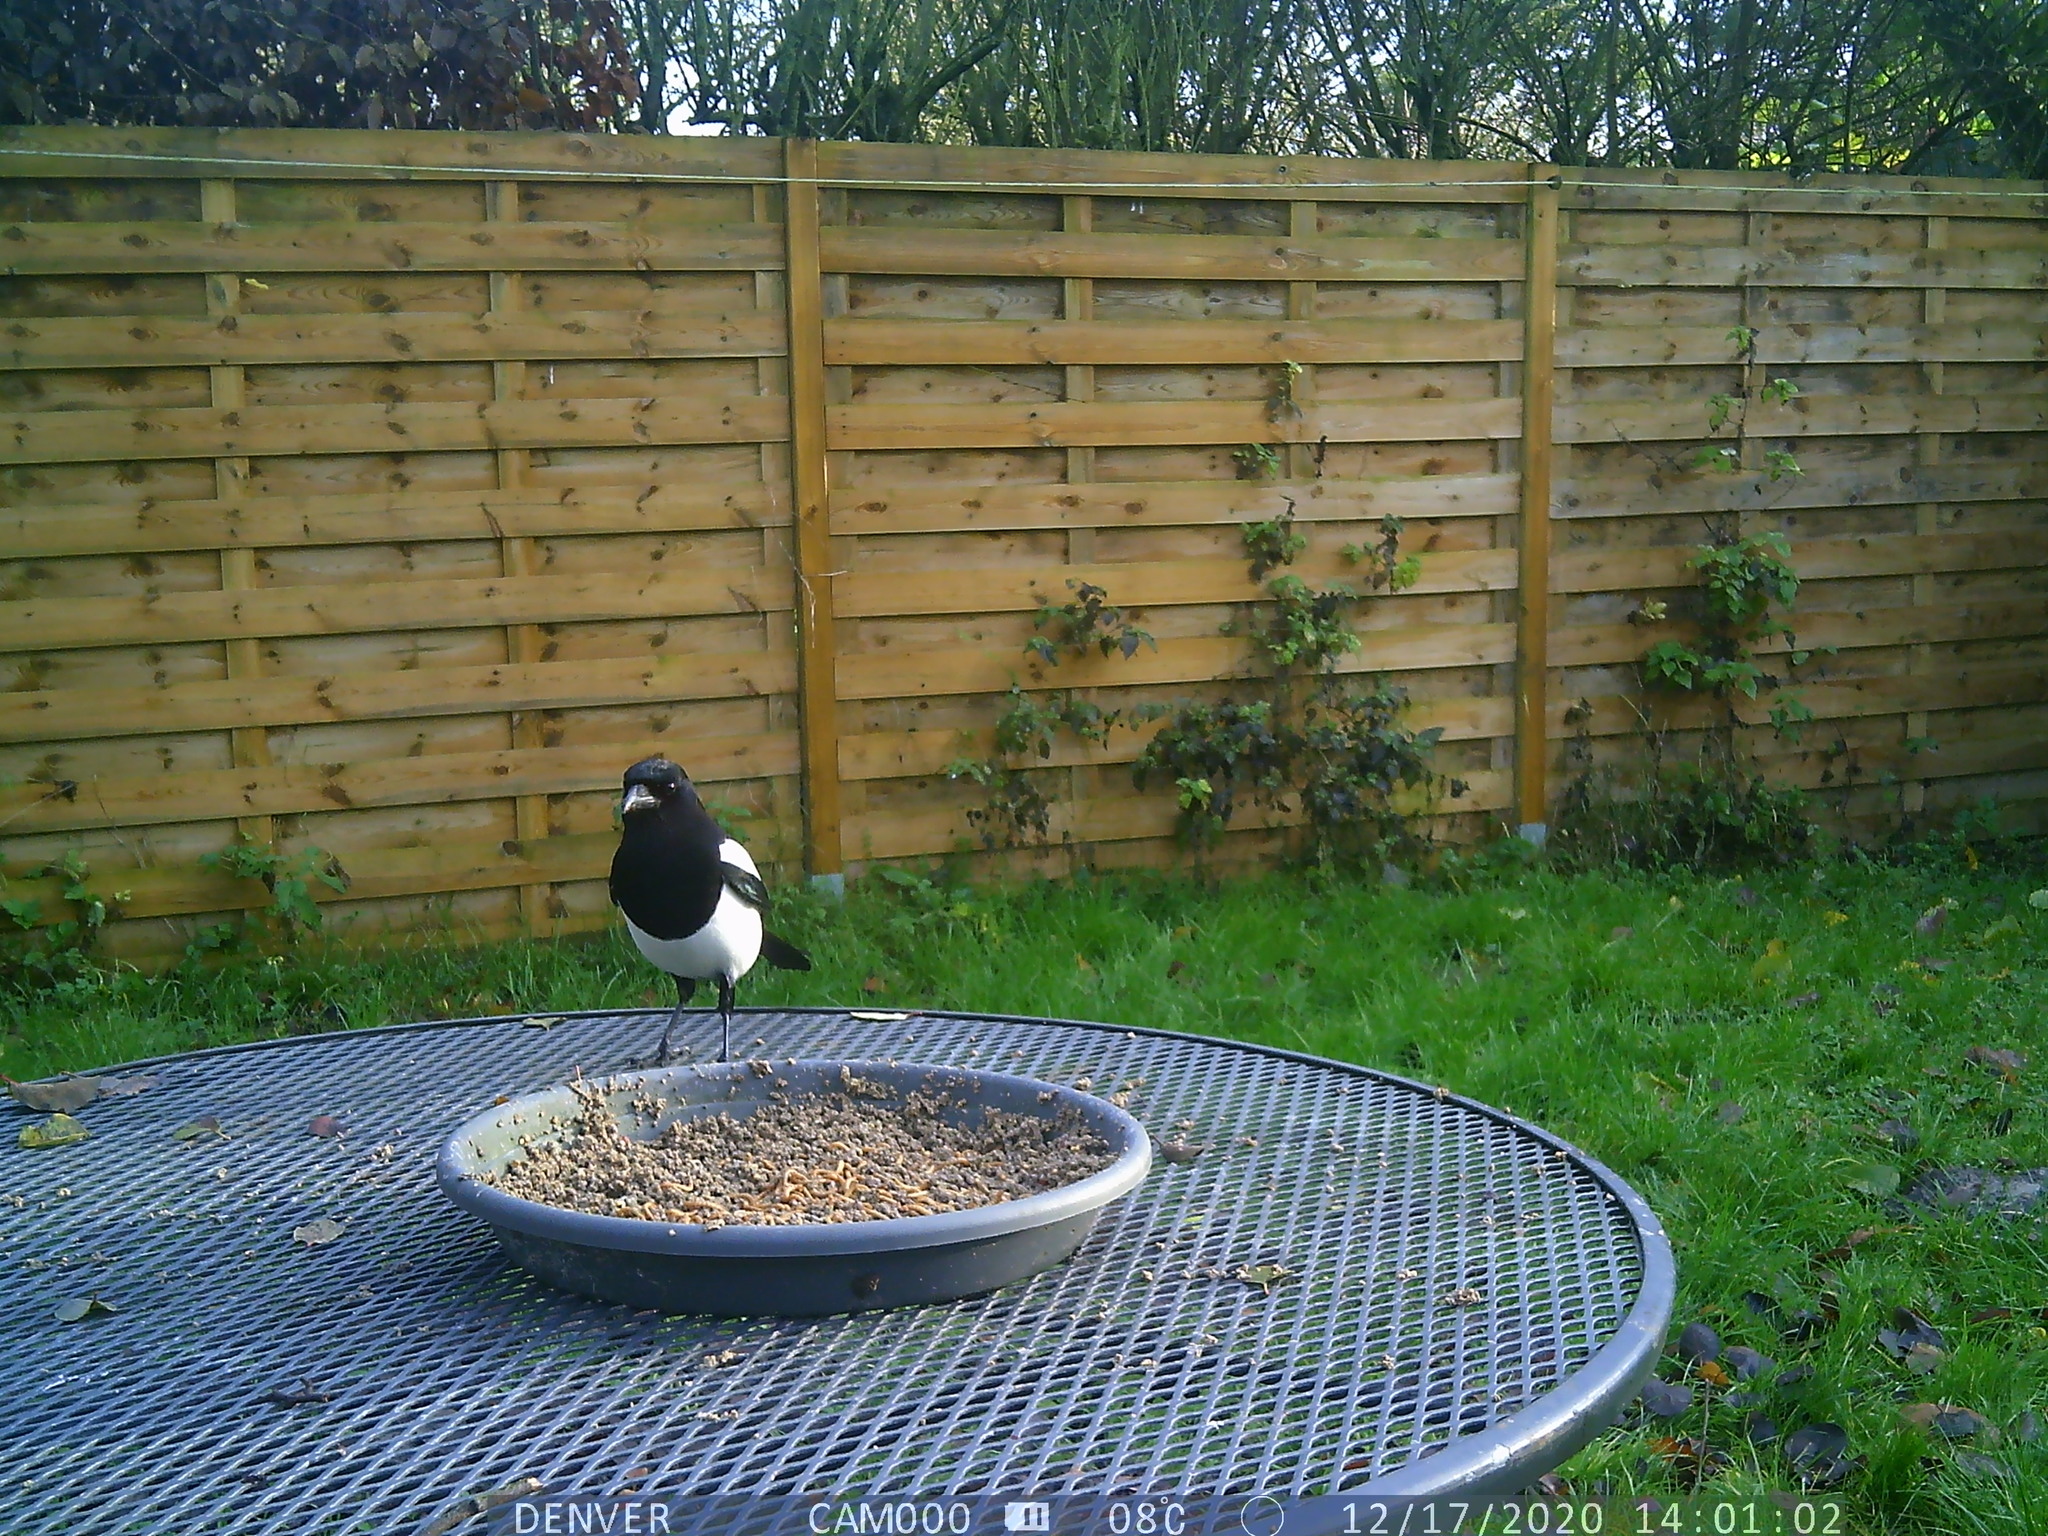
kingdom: Animalia
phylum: Chordata
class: Aves
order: Passeriformes
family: Corvidae
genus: Pica
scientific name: Pica pica
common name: Eurasian magpie
